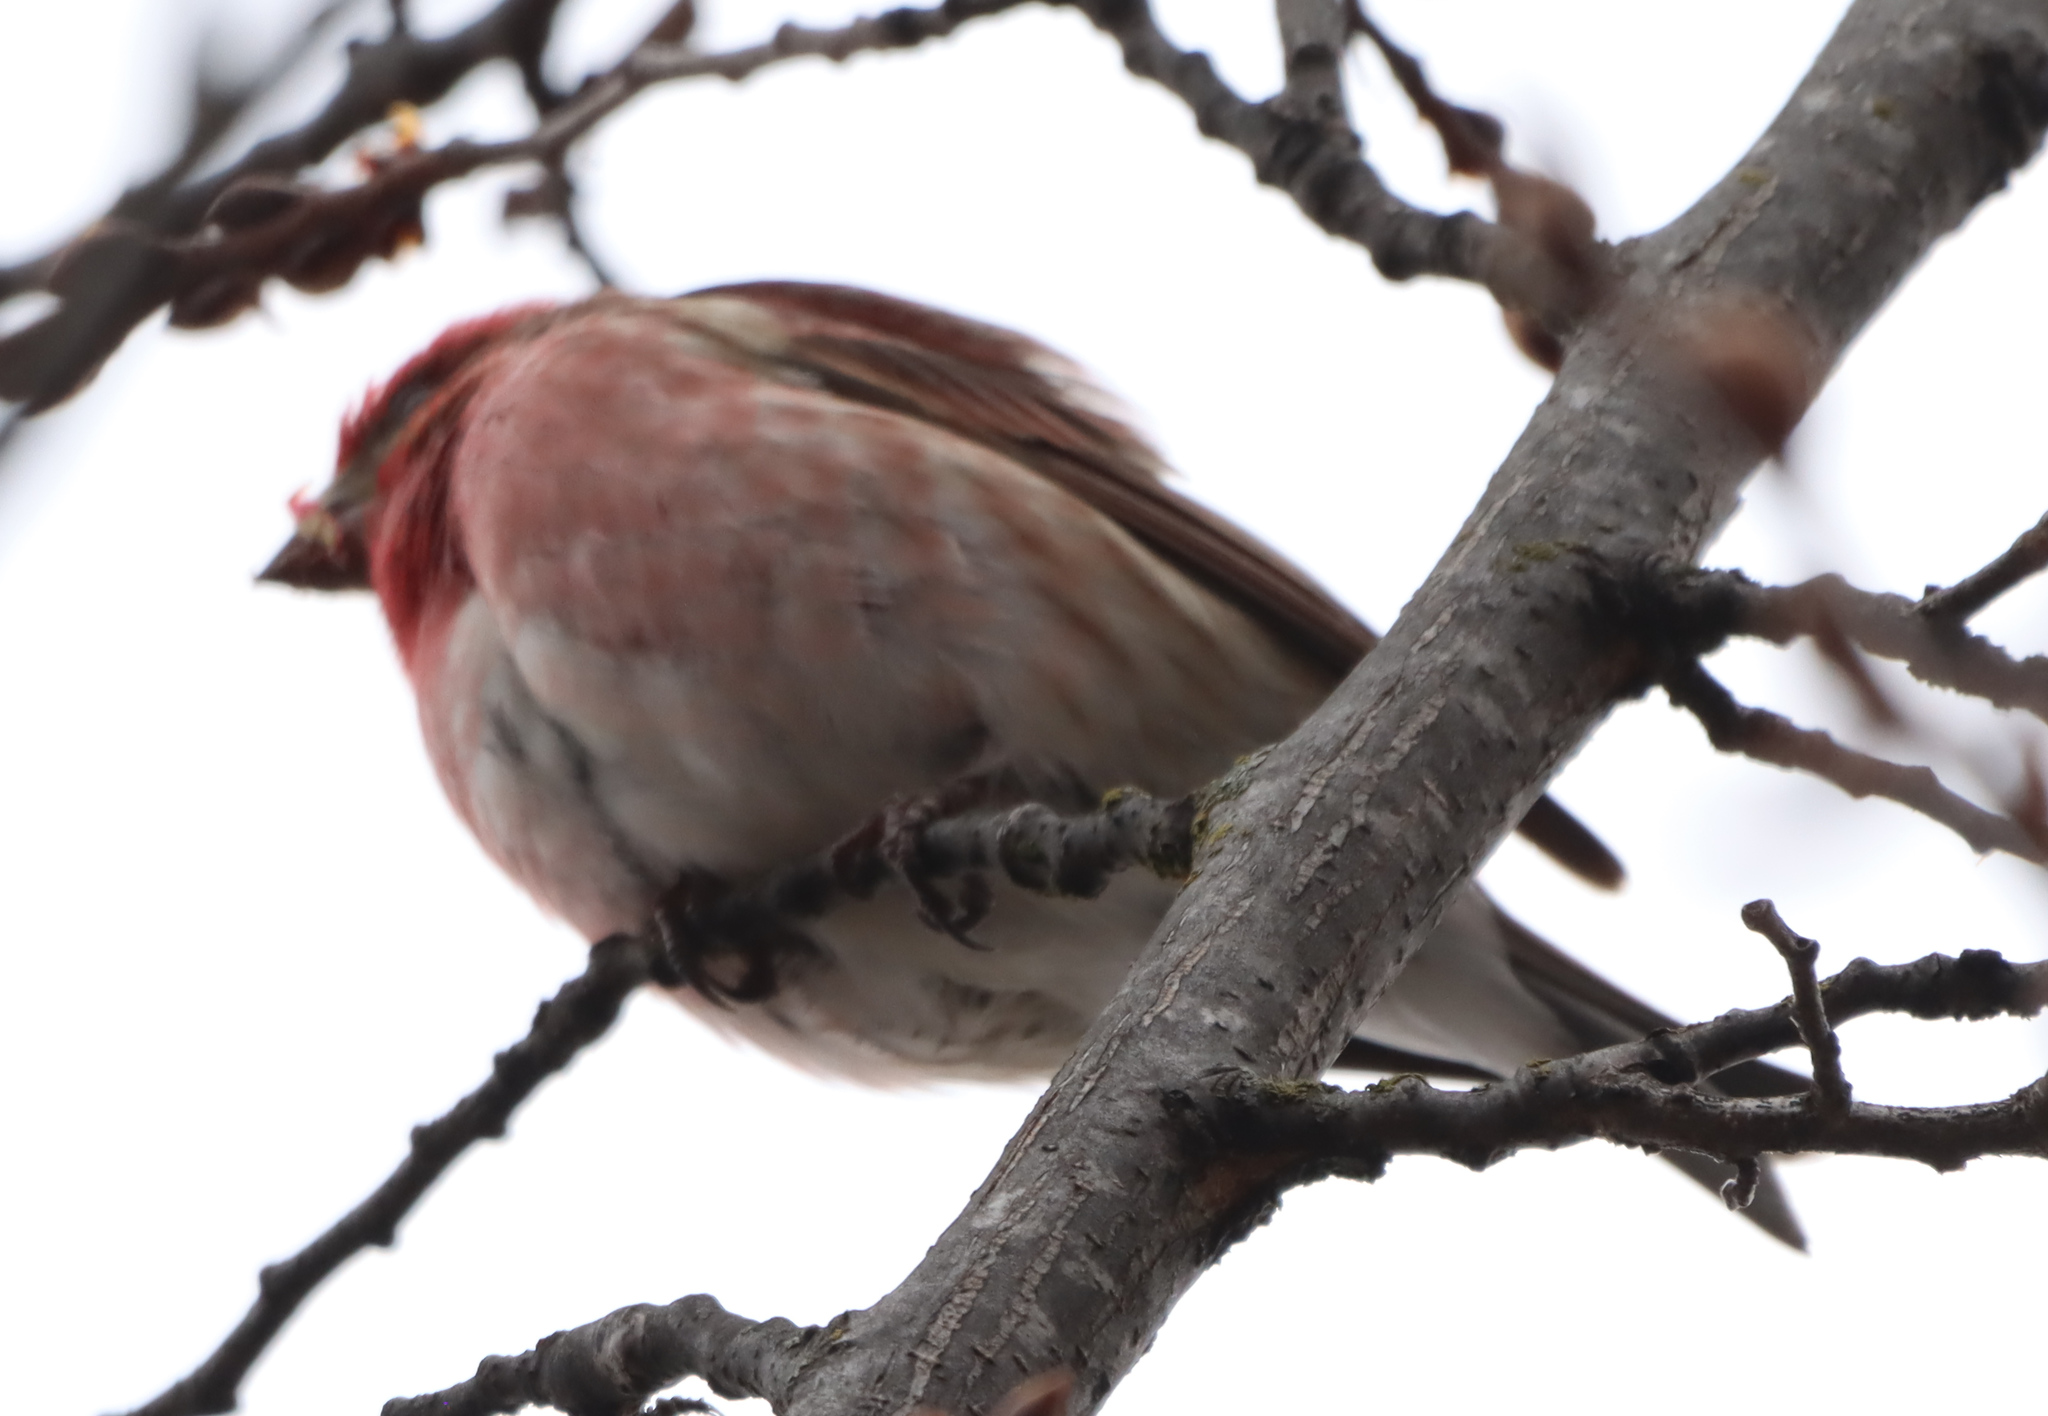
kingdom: Animalia
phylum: Chordata
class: Aves
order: Passeriformes
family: Fringillidae
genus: Haemorhous
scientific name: Haemorhous purpureus
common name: Purple finch
